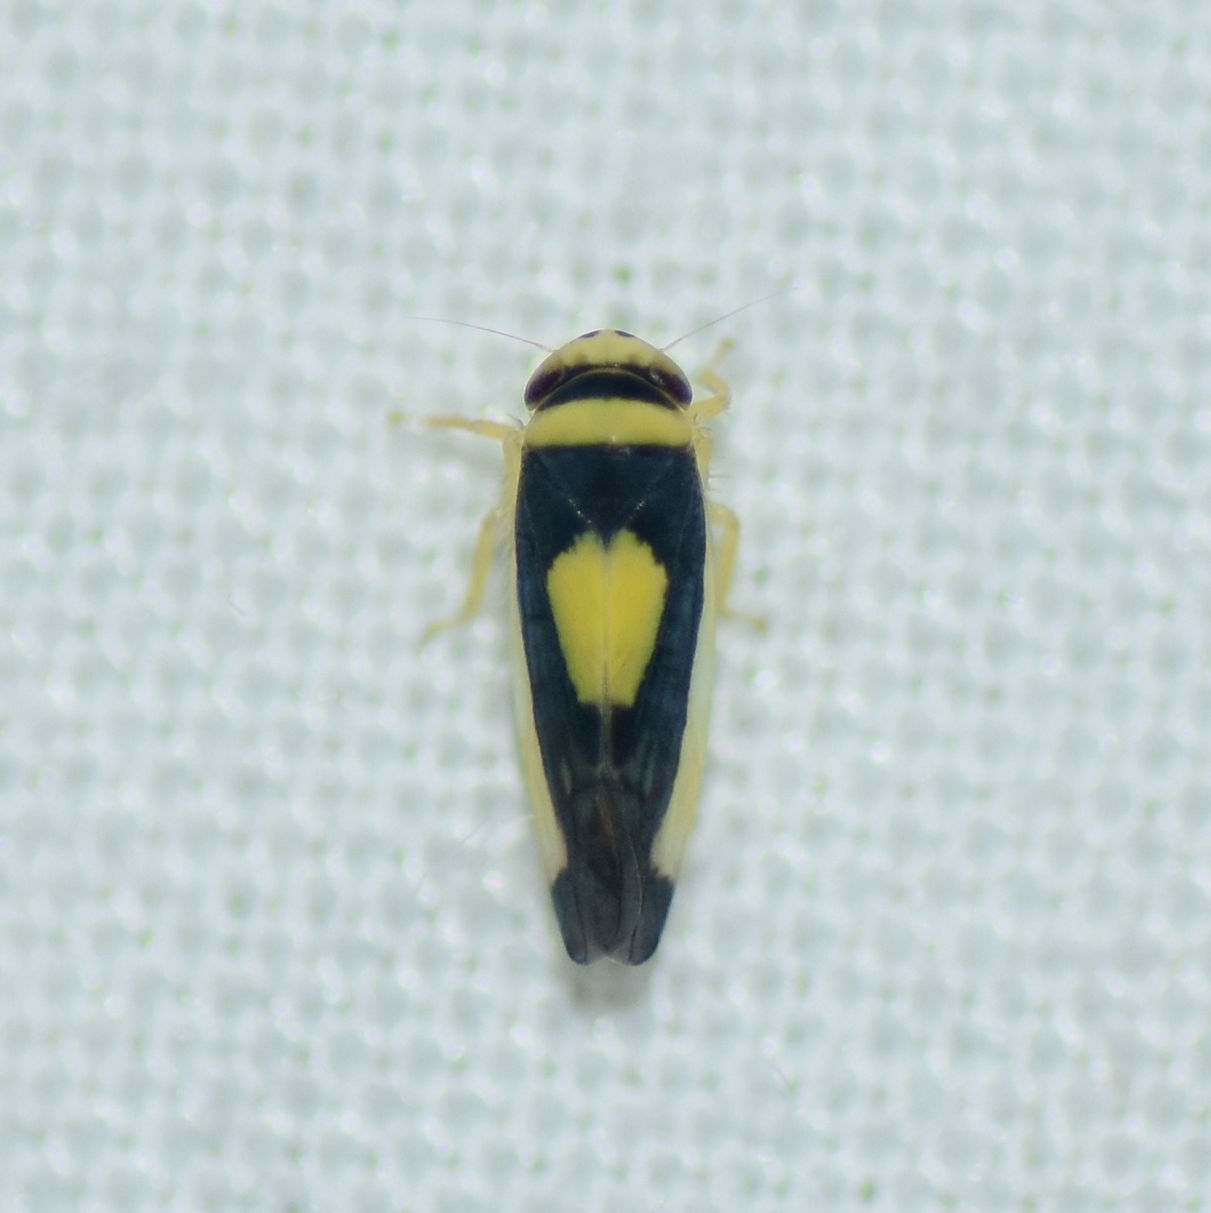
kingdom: Animalia
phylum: Arthropoda
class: Insecta
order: Hemiptera
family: Cicadellidae
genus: Colladonus
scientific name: Colladonus clitellarius
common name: The saddleback leafhopper
